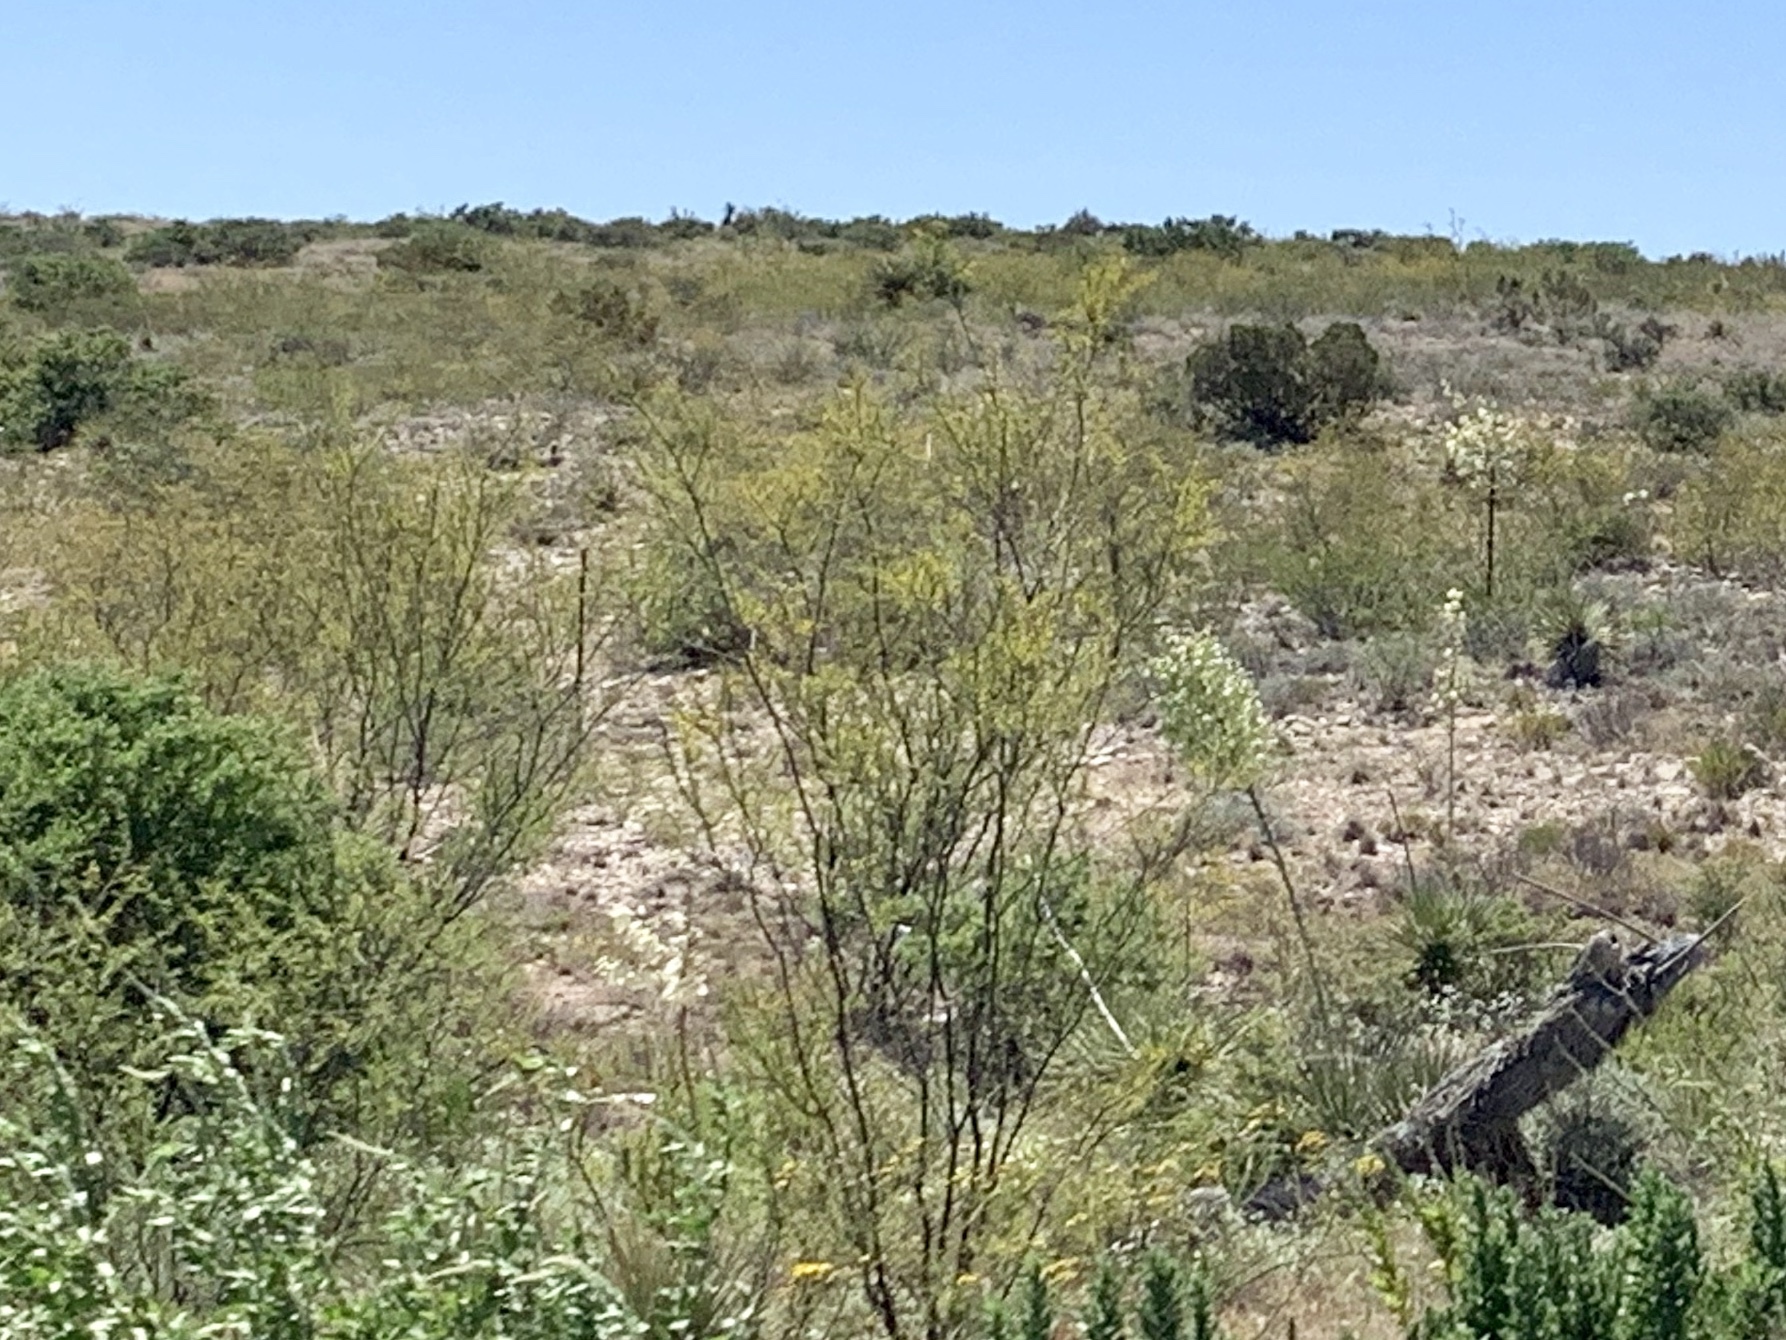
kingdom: Plantae
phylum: Tracheophyta
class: Magnoliopsida
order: Zygophyllales
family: Zygophyllaceae
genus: Larrea
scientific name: Larrea tridentata
